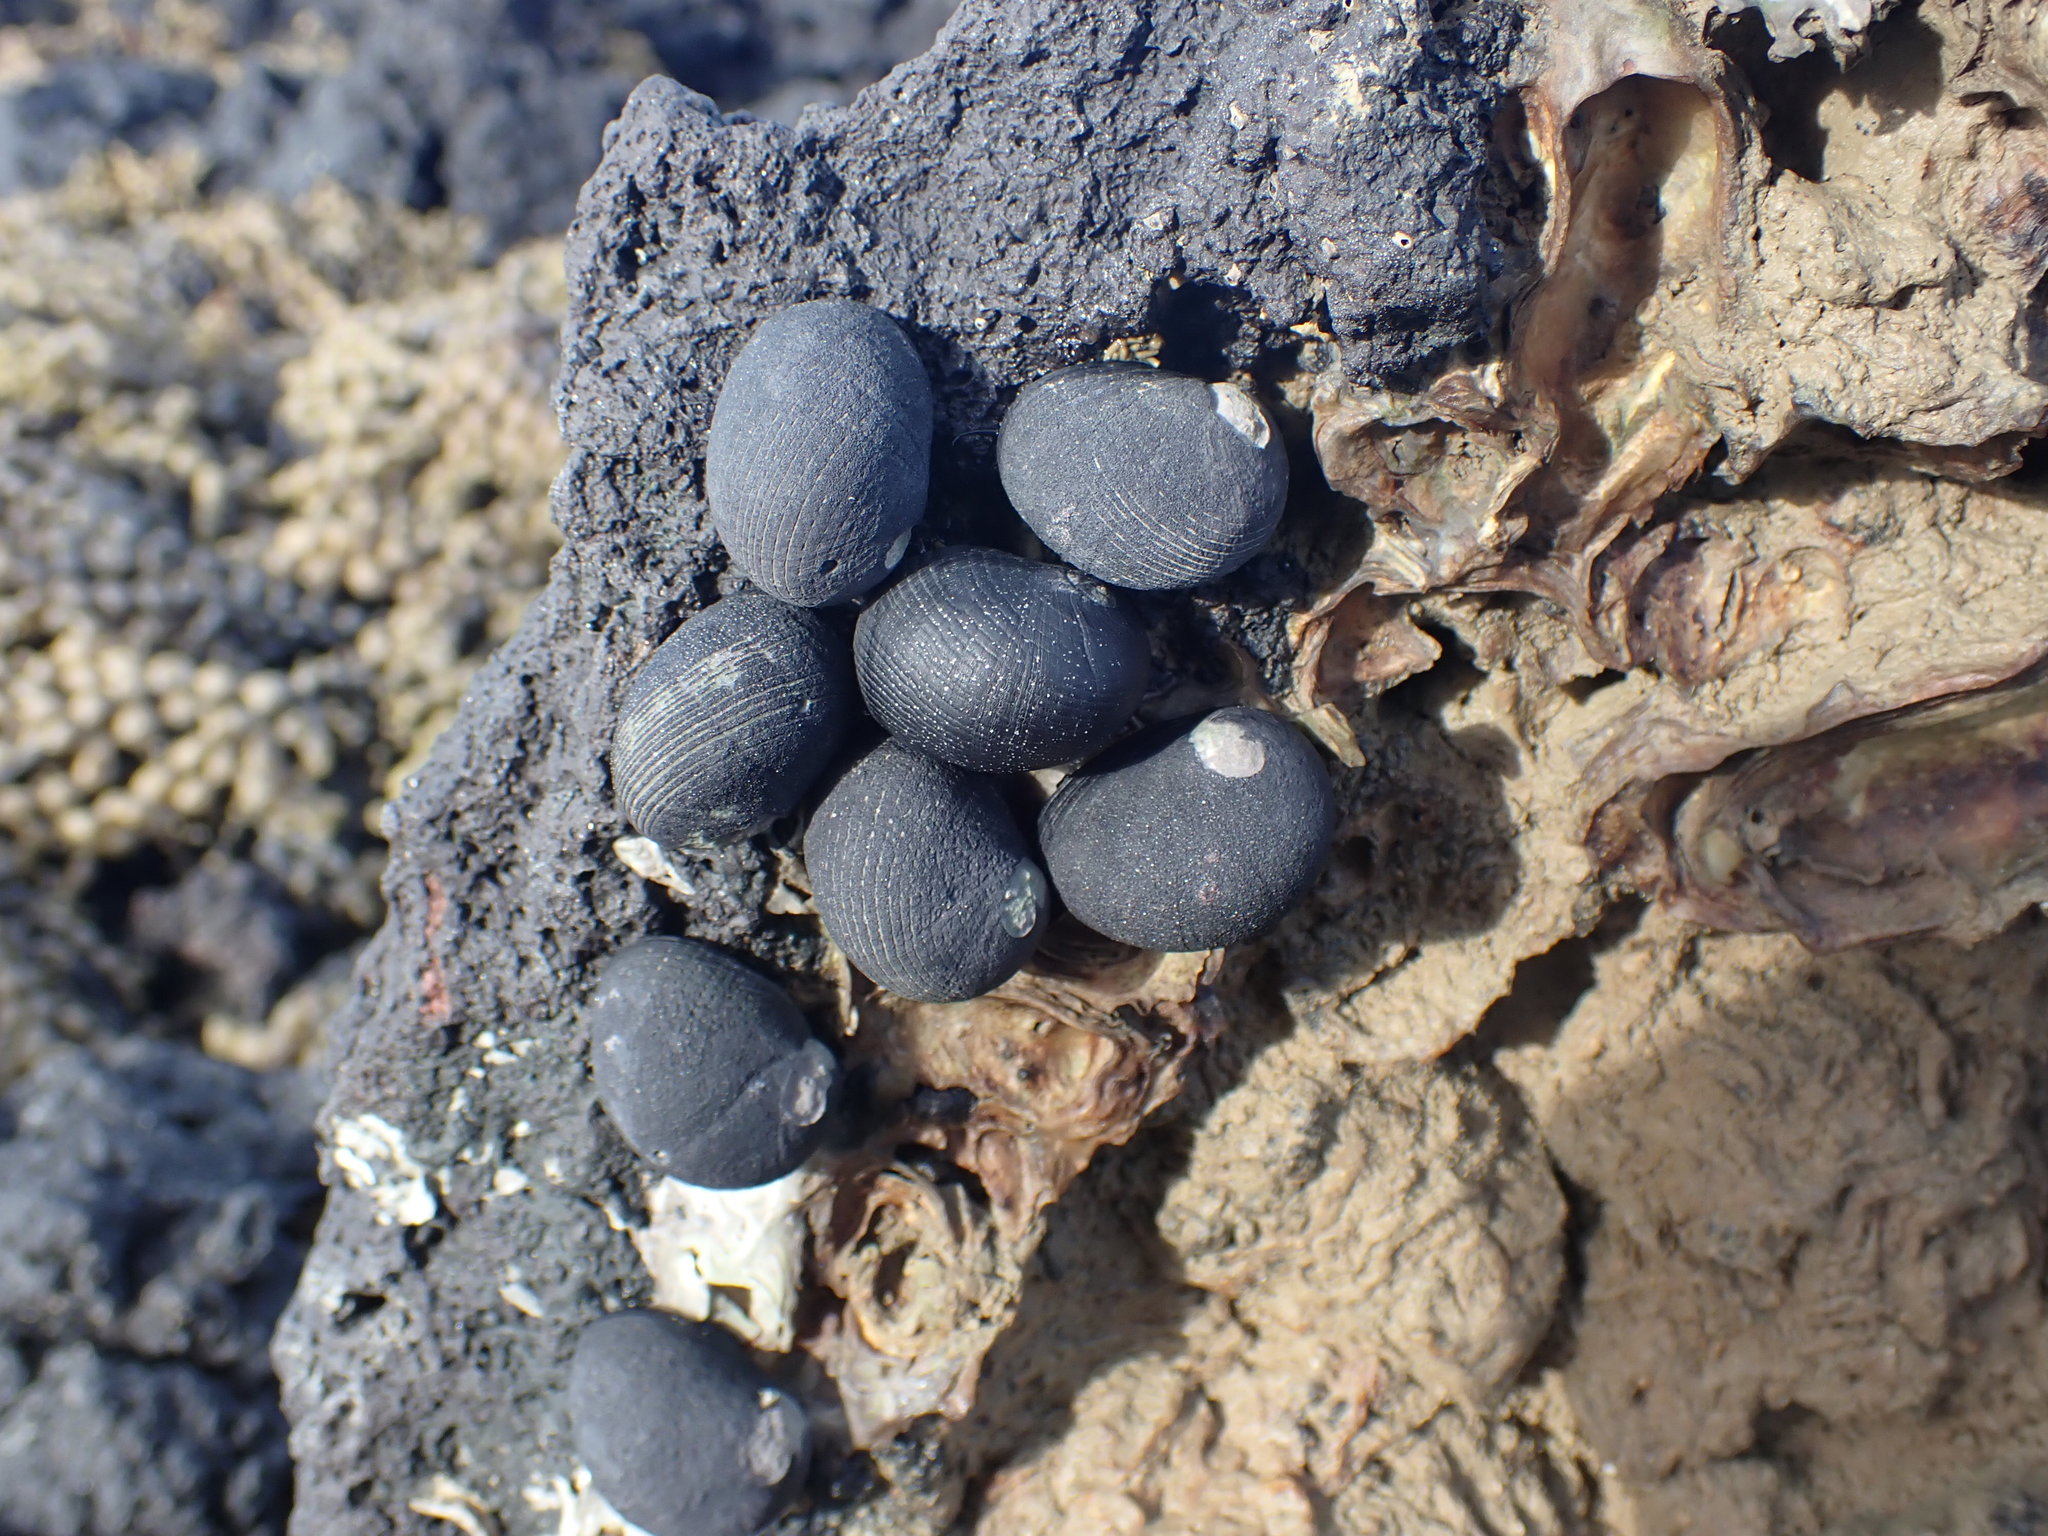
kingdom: Animalia
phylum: Mollusca
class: Gastropoda
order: Cycloneritida
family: Neritidae
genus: Nerita
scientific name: Nerita melanotragus
